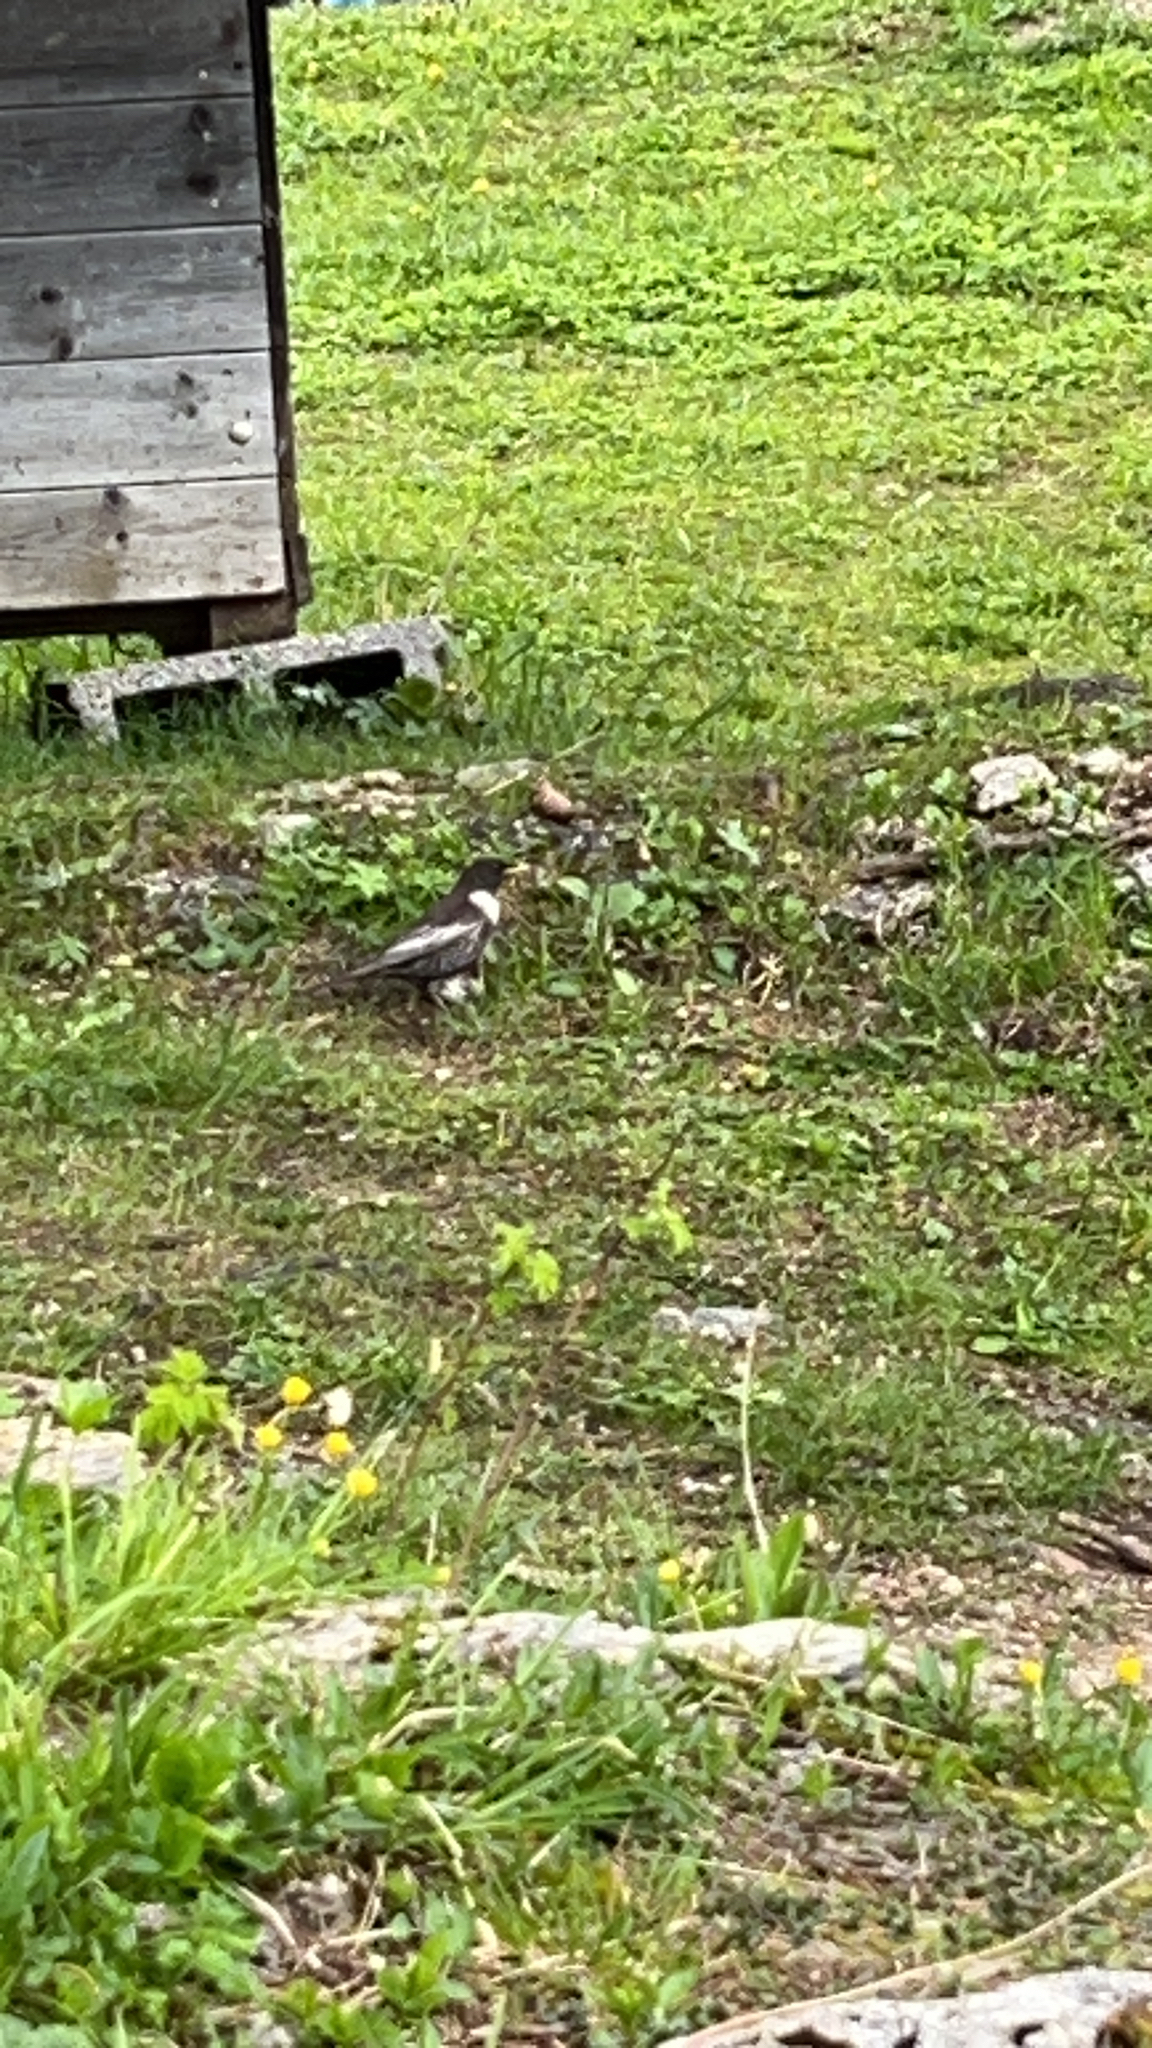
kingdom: Animalia
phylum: Chordata
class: Aves
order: Passeriformes
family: Turdidae
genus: Turdus
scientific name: Turdus torquatus
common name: Ring ouzel
